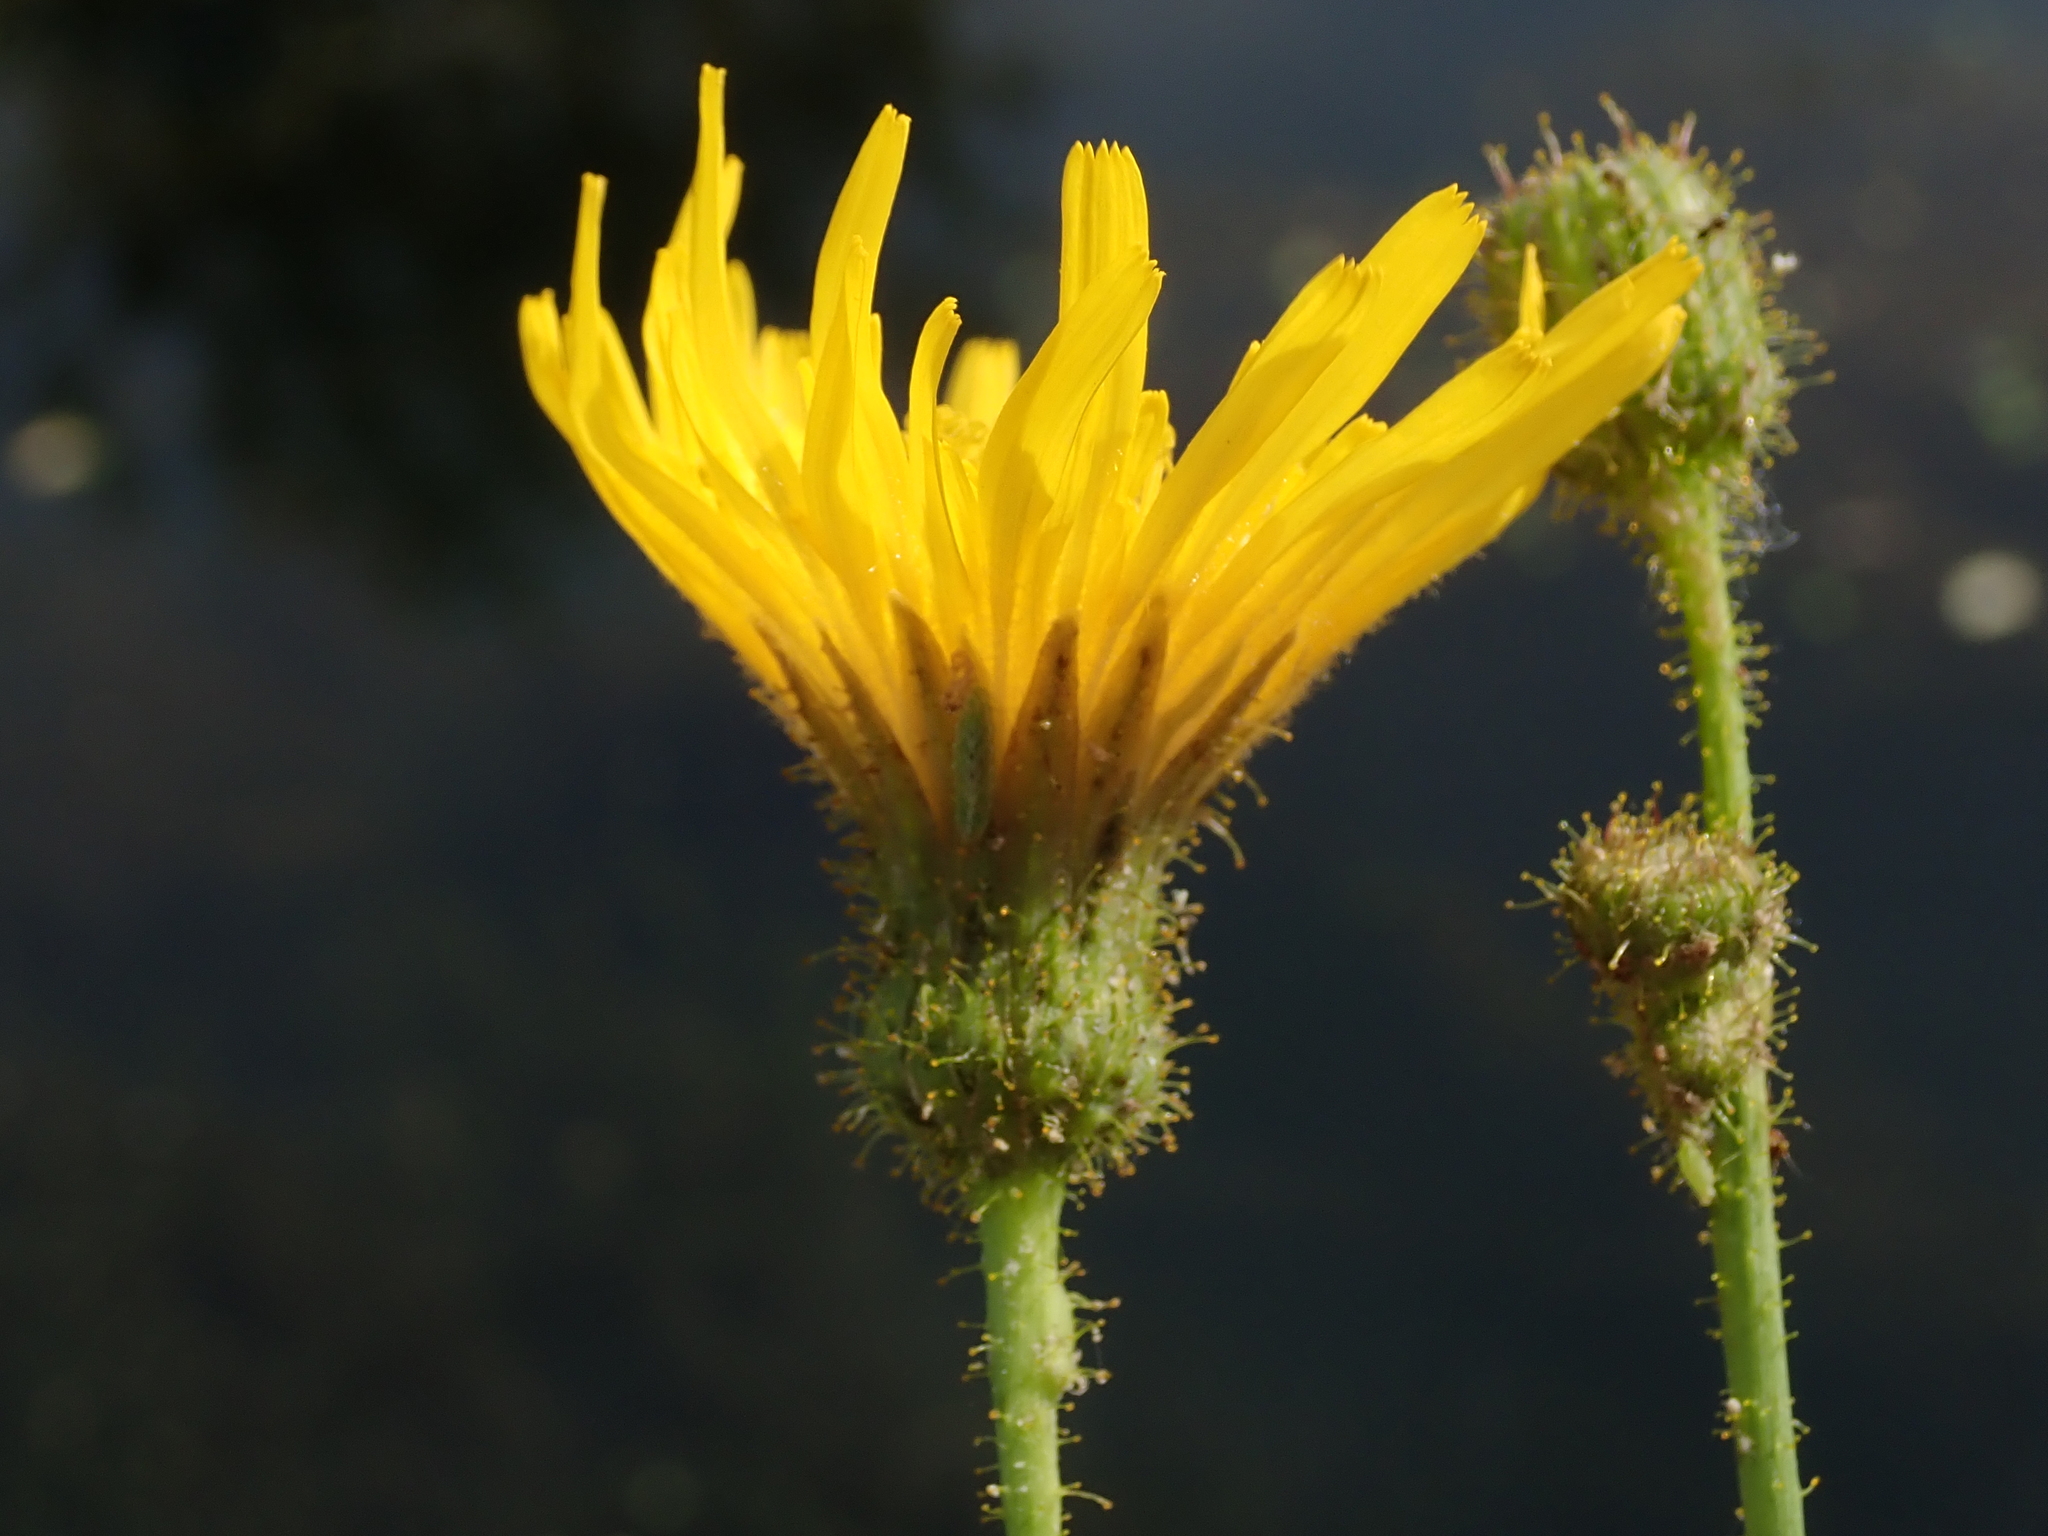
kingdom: Plantae
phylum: Tracheophyta
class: Magnoliopsida
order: Asterales
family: Asteraceae
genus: Sonchus
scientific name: Sonchus arvensis
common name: Perennial sow-thistle
